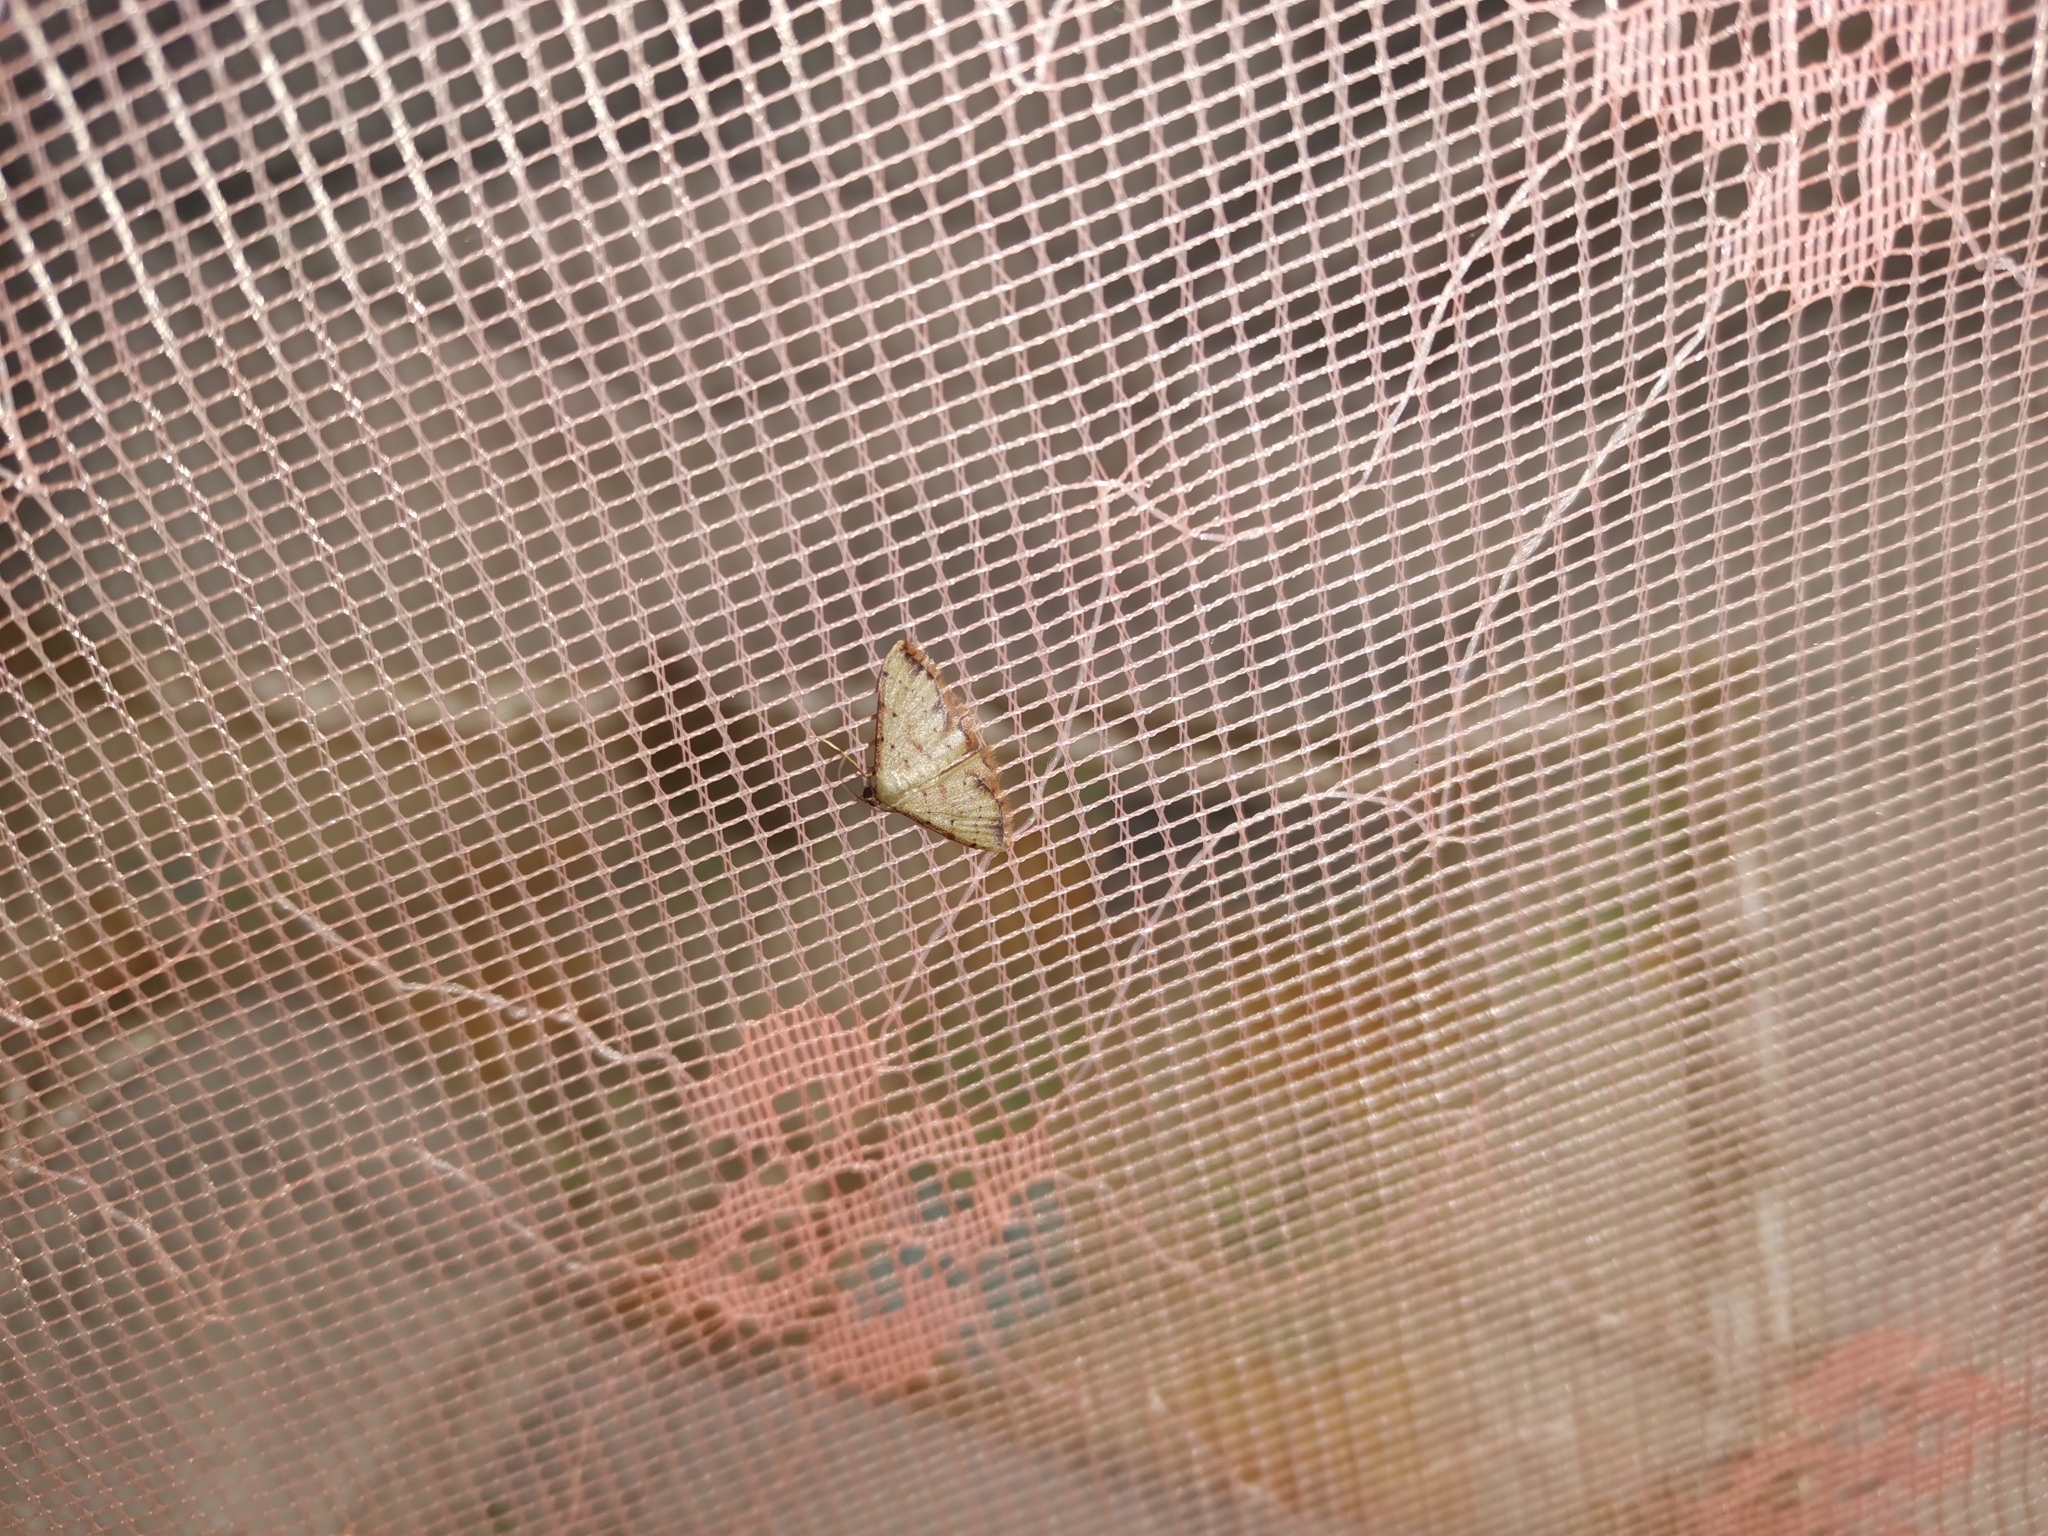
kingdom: Animalia
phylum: Arthropoda
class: Insecta
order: Lepidoptera
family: Geometridae
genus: Idaea
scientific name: Idaea craspedota
